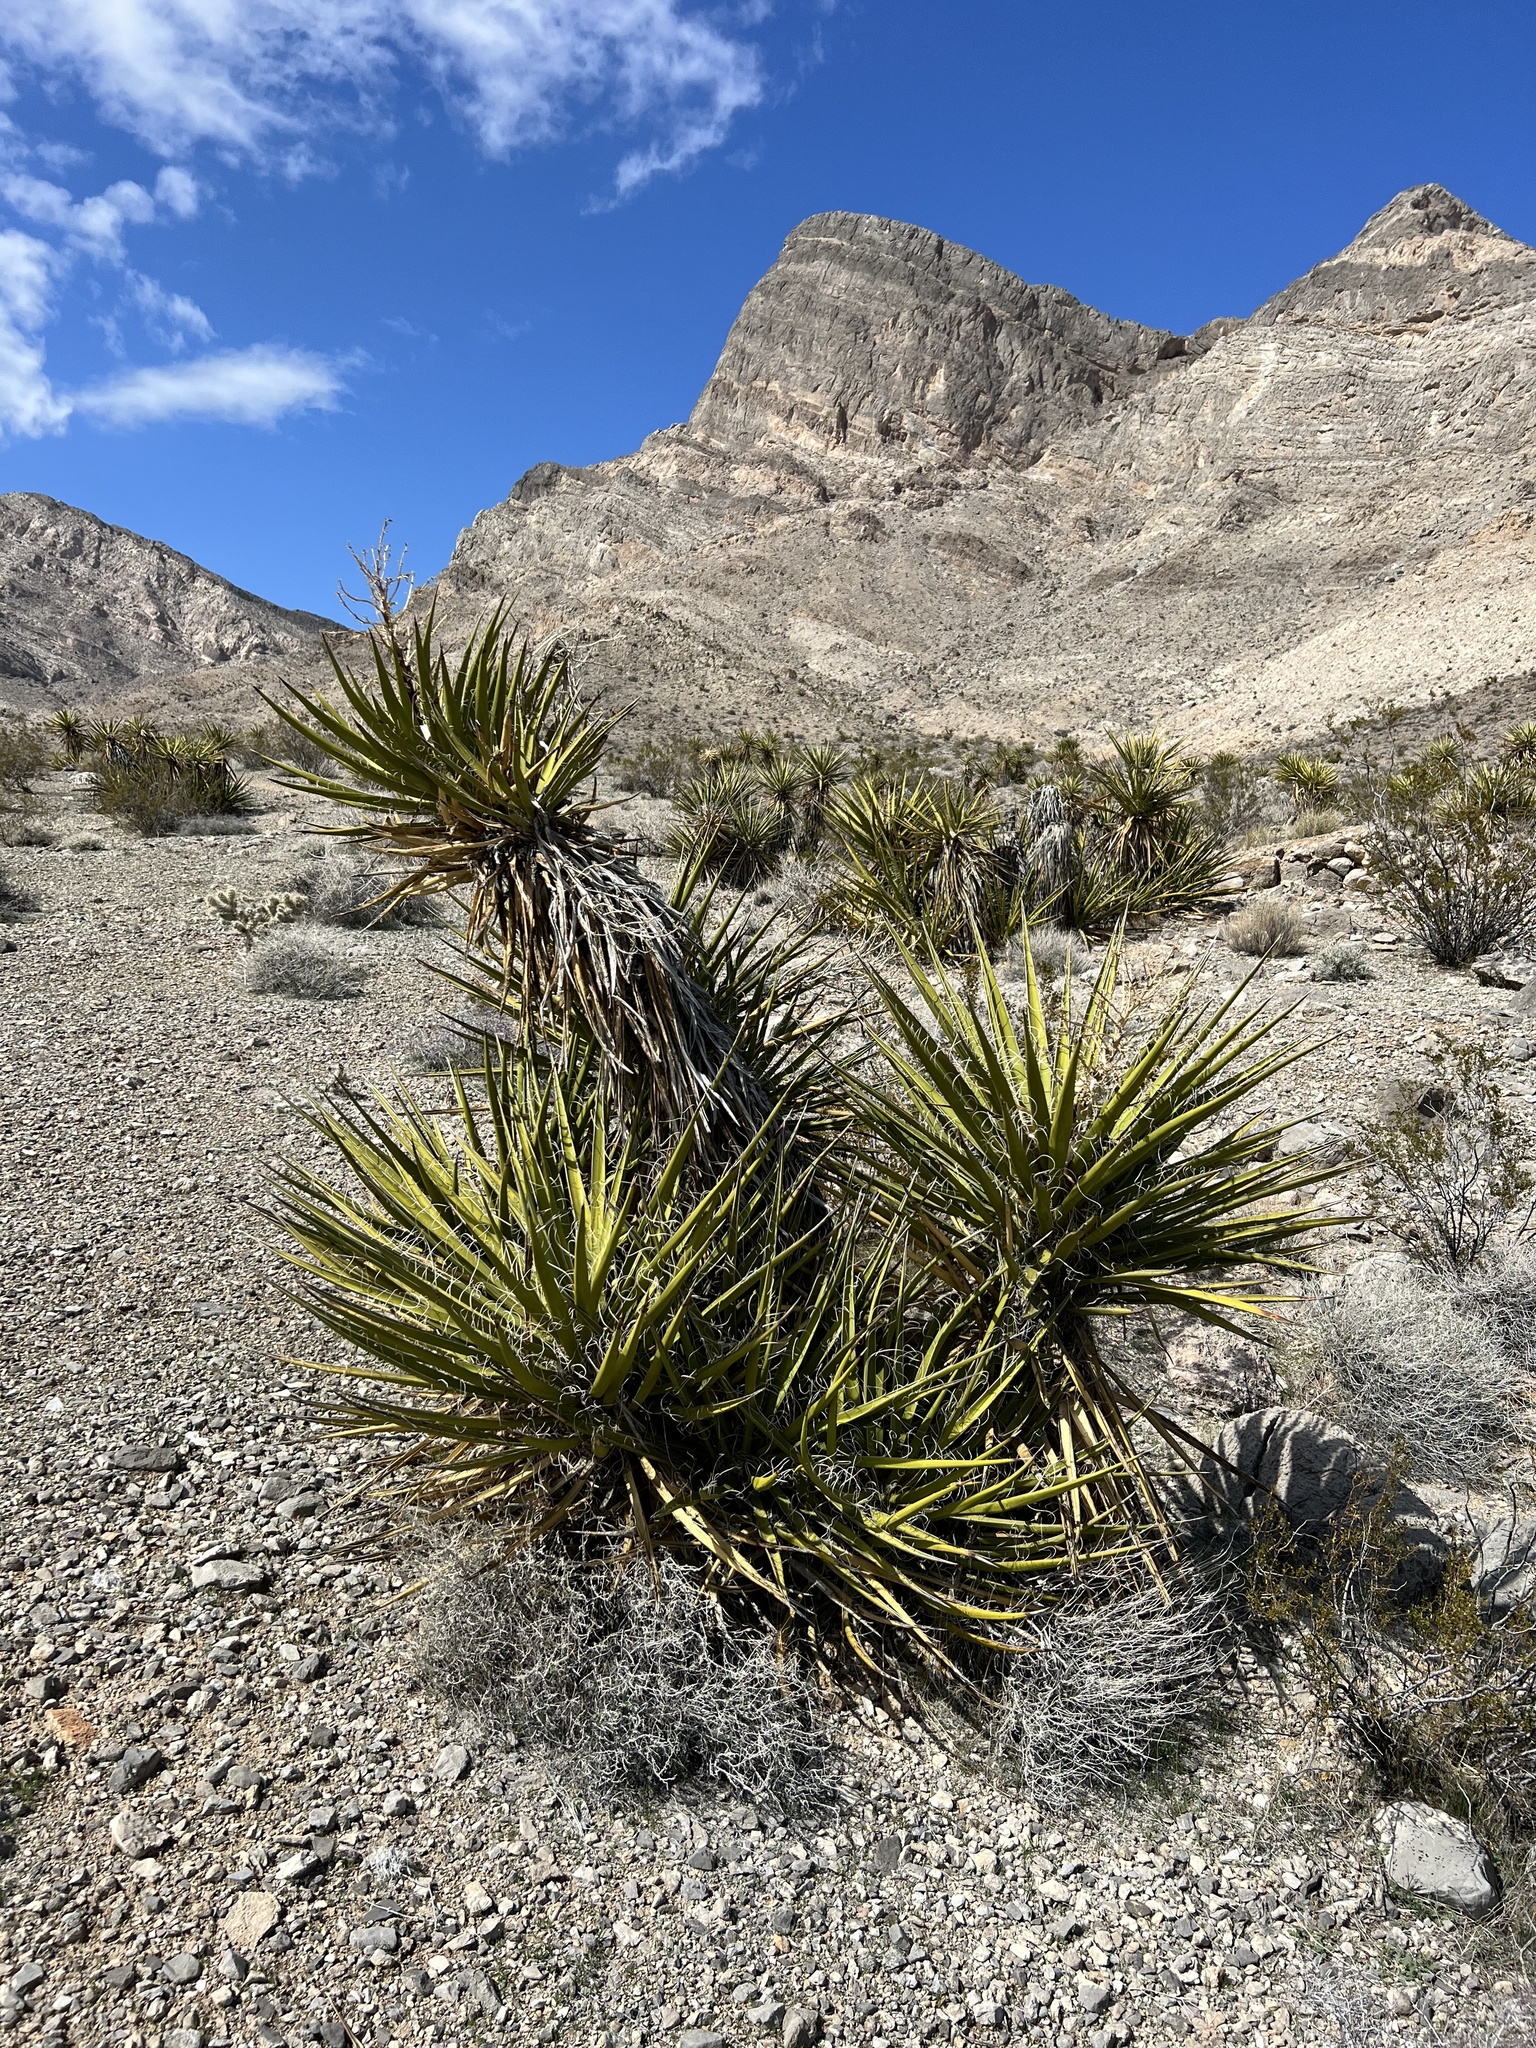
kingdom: Plantae
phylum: Tracheophyta
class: Liliopsida
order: Asparagales
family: Asparagaceae
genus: Yucca
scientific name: Yucca schidigera
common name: Mojave yucca
